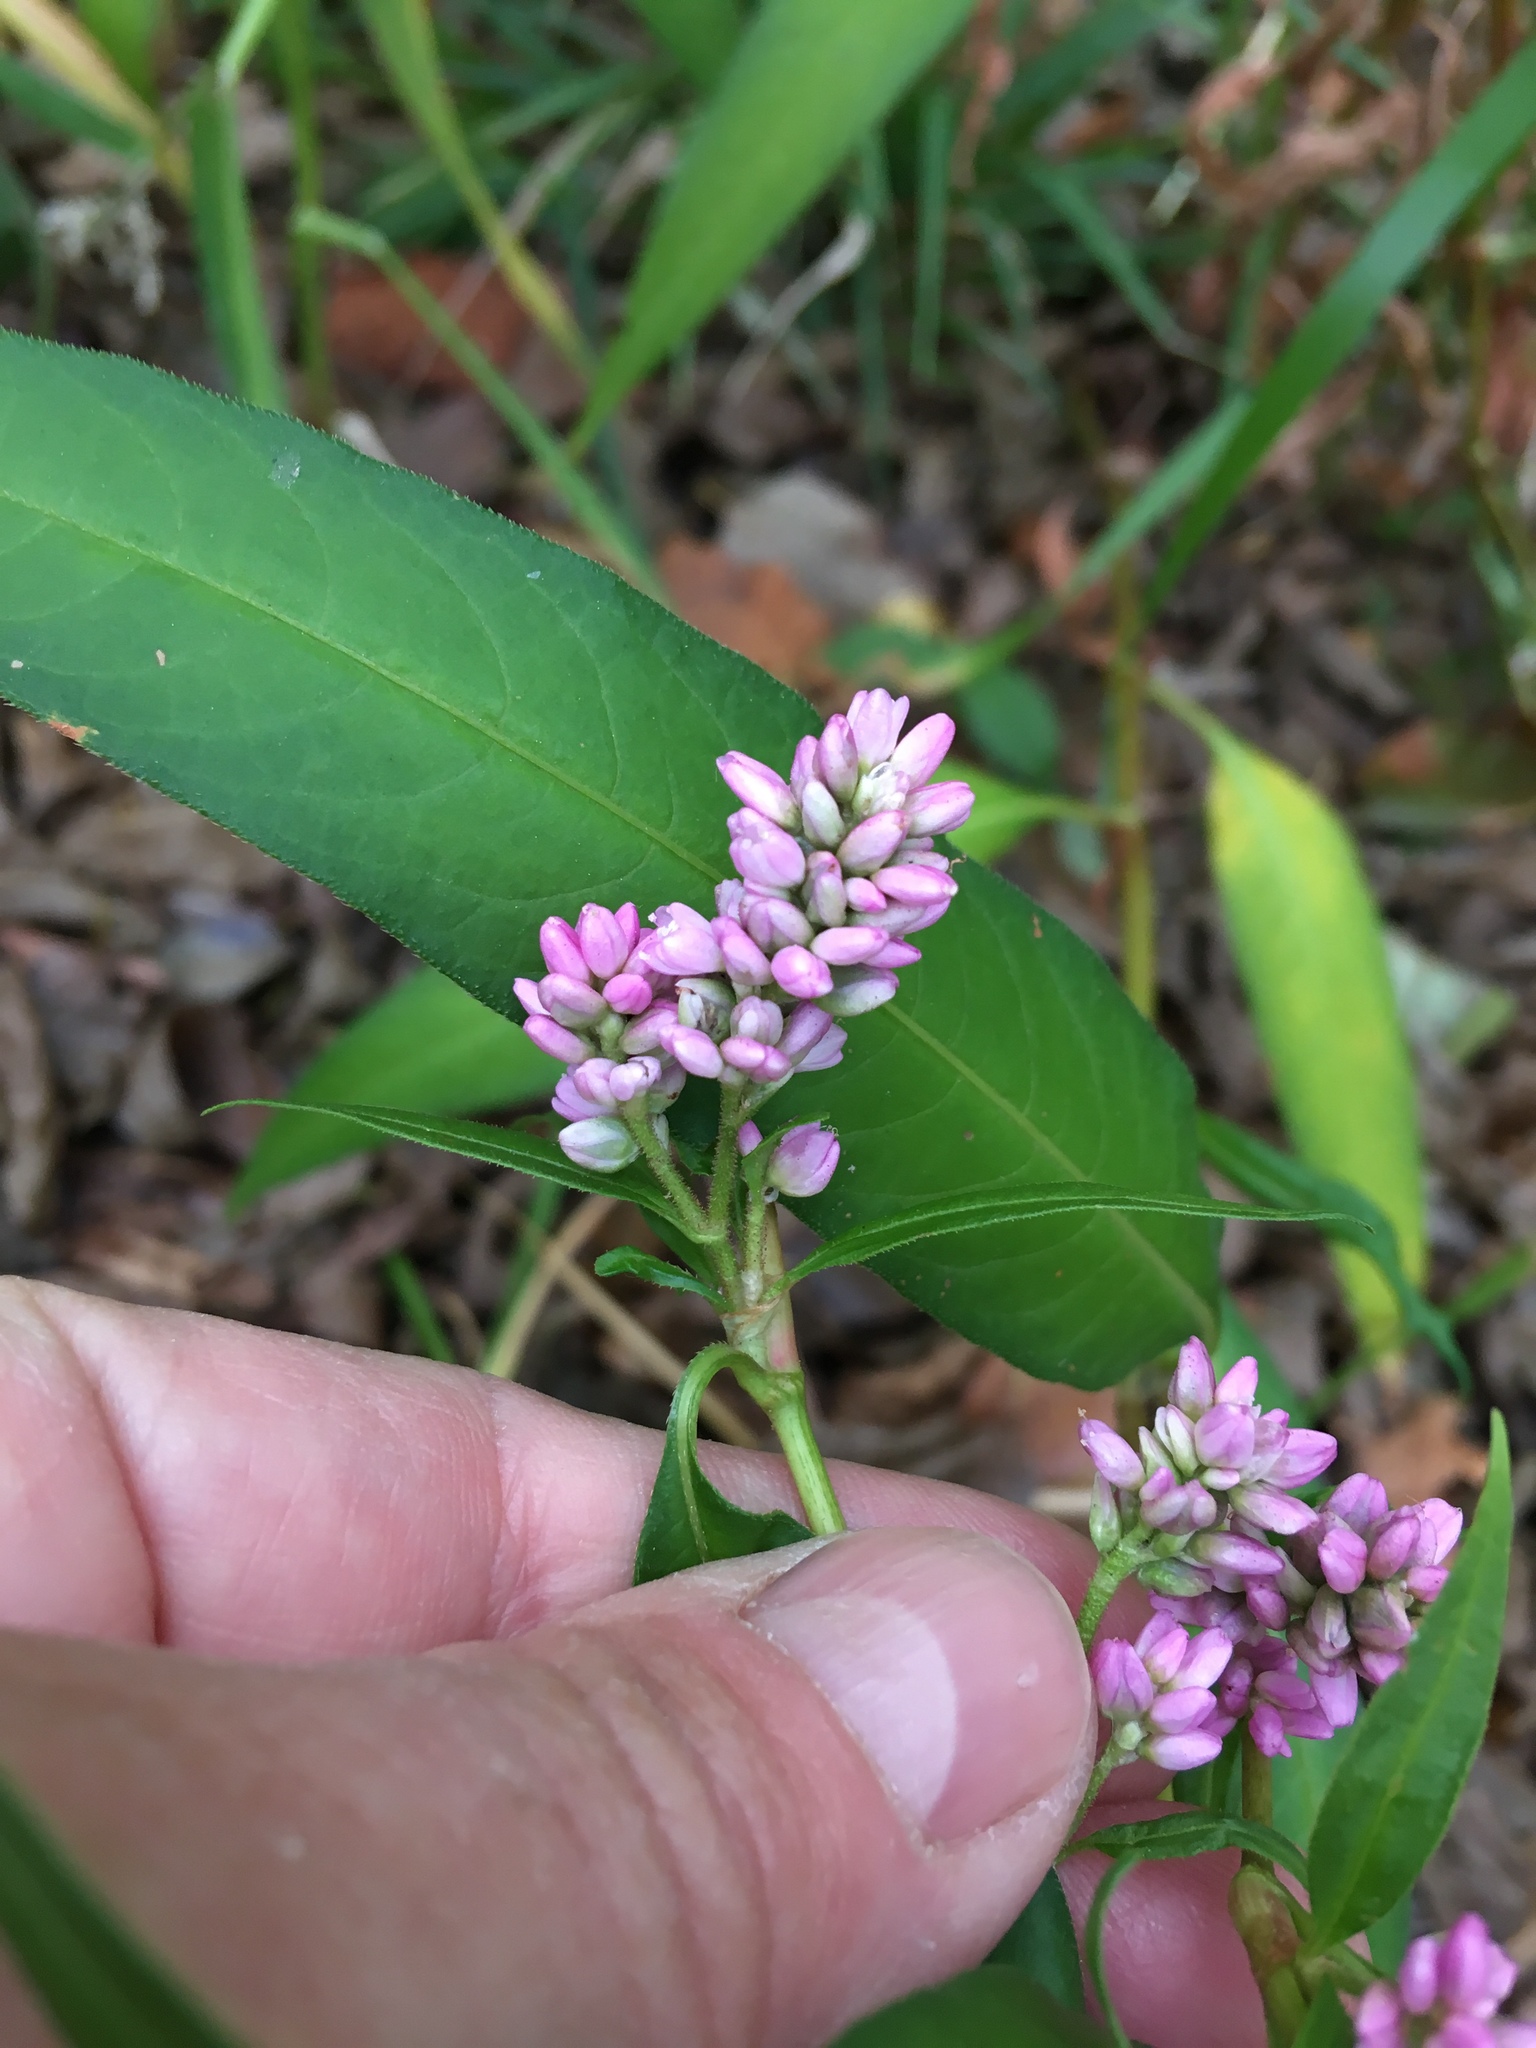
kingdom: Plantae
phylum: Tracheophyta
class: Magnoliopsida
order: Caryophyllales
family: Polygonaceae
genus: Persicaria
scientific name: Persicaria pensylvanica
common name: Pinkweed
